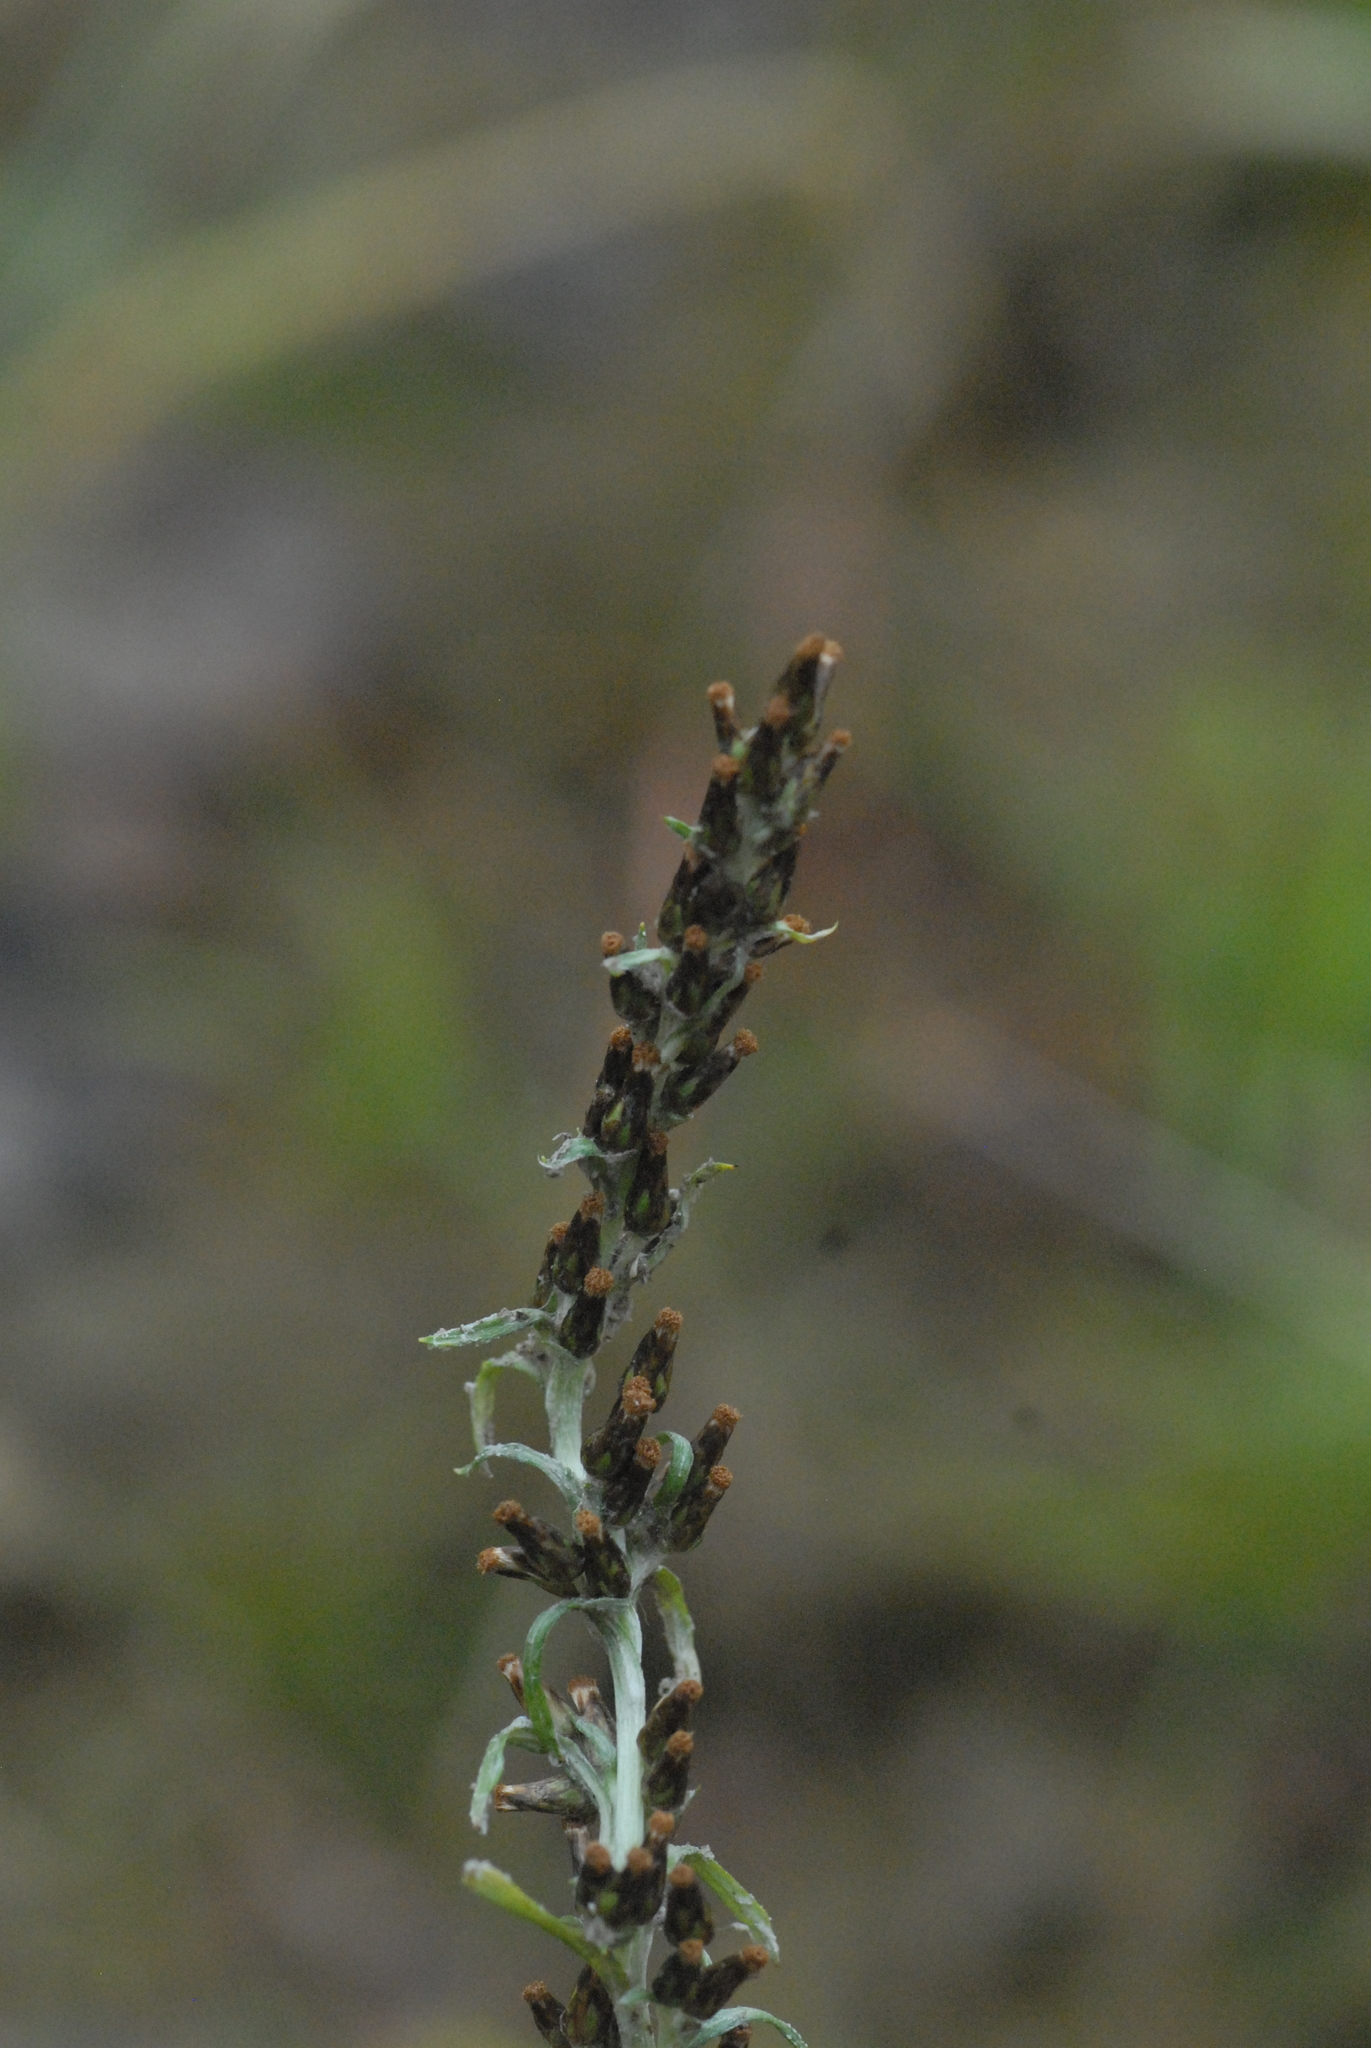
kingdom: Plantae
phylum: Tracheophyta
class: Magnoliopsida
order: Asterales
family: Asteraceae
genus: Omalotheca
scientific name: Omalotheca sylvatica
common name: Heath cudweed
